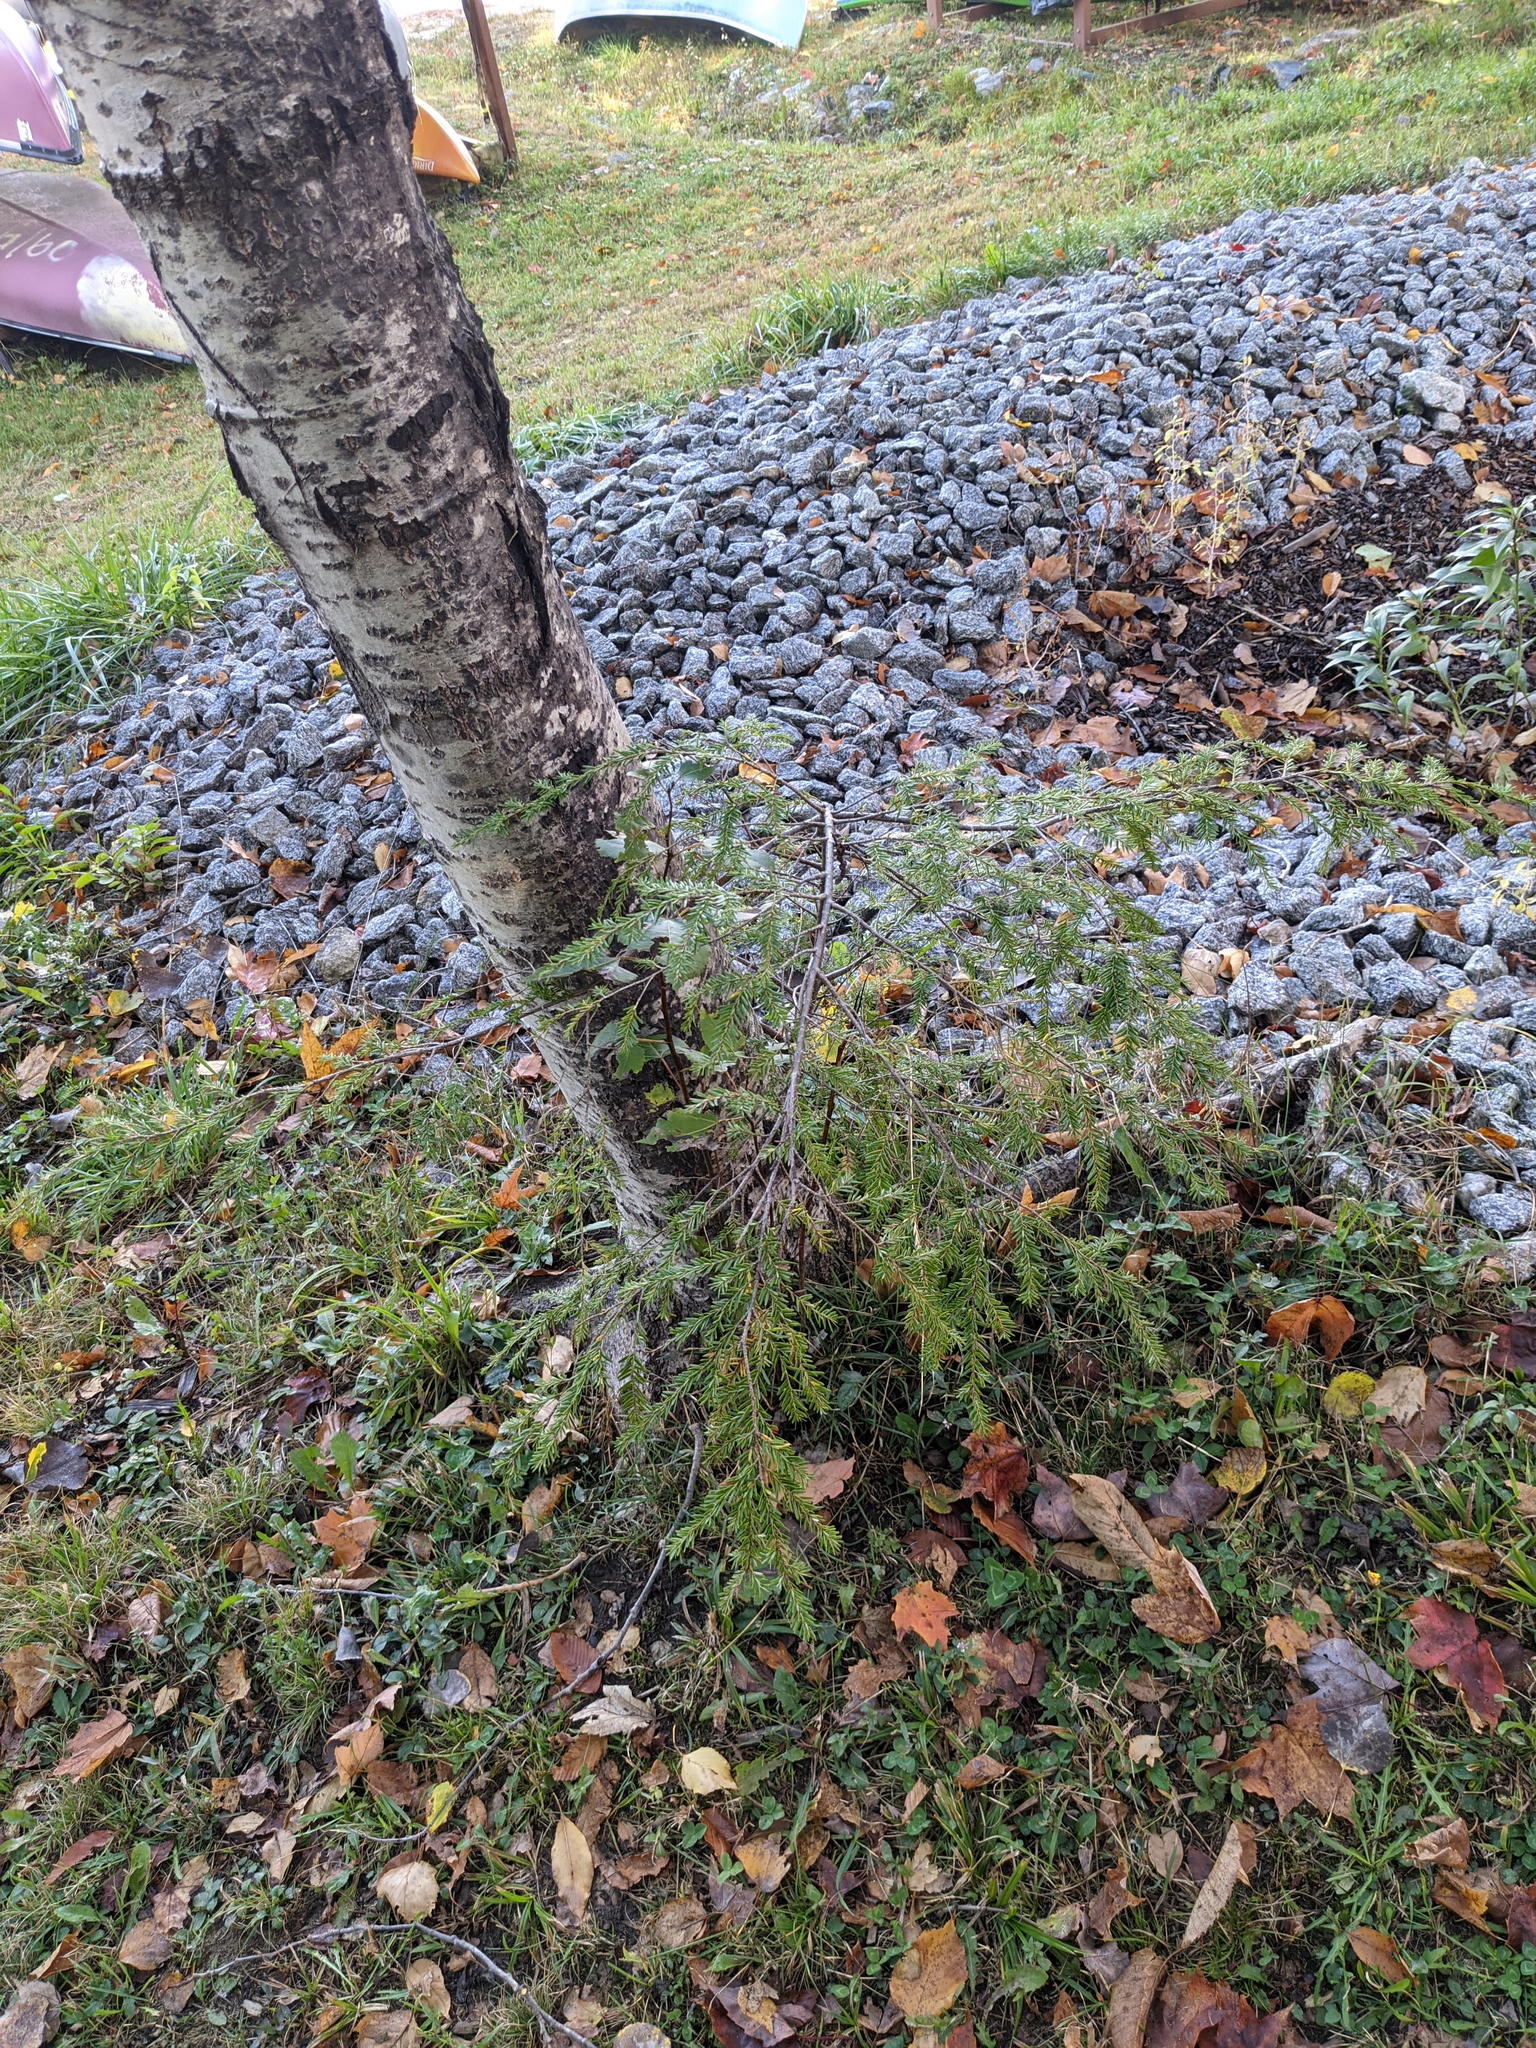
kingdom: Plantae
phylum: Tracheophyta
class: Pinopsida
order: Pinales
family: Pinaceae
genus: Tsuga
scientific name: Tsuga canadensis
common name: Eastern hemlock
